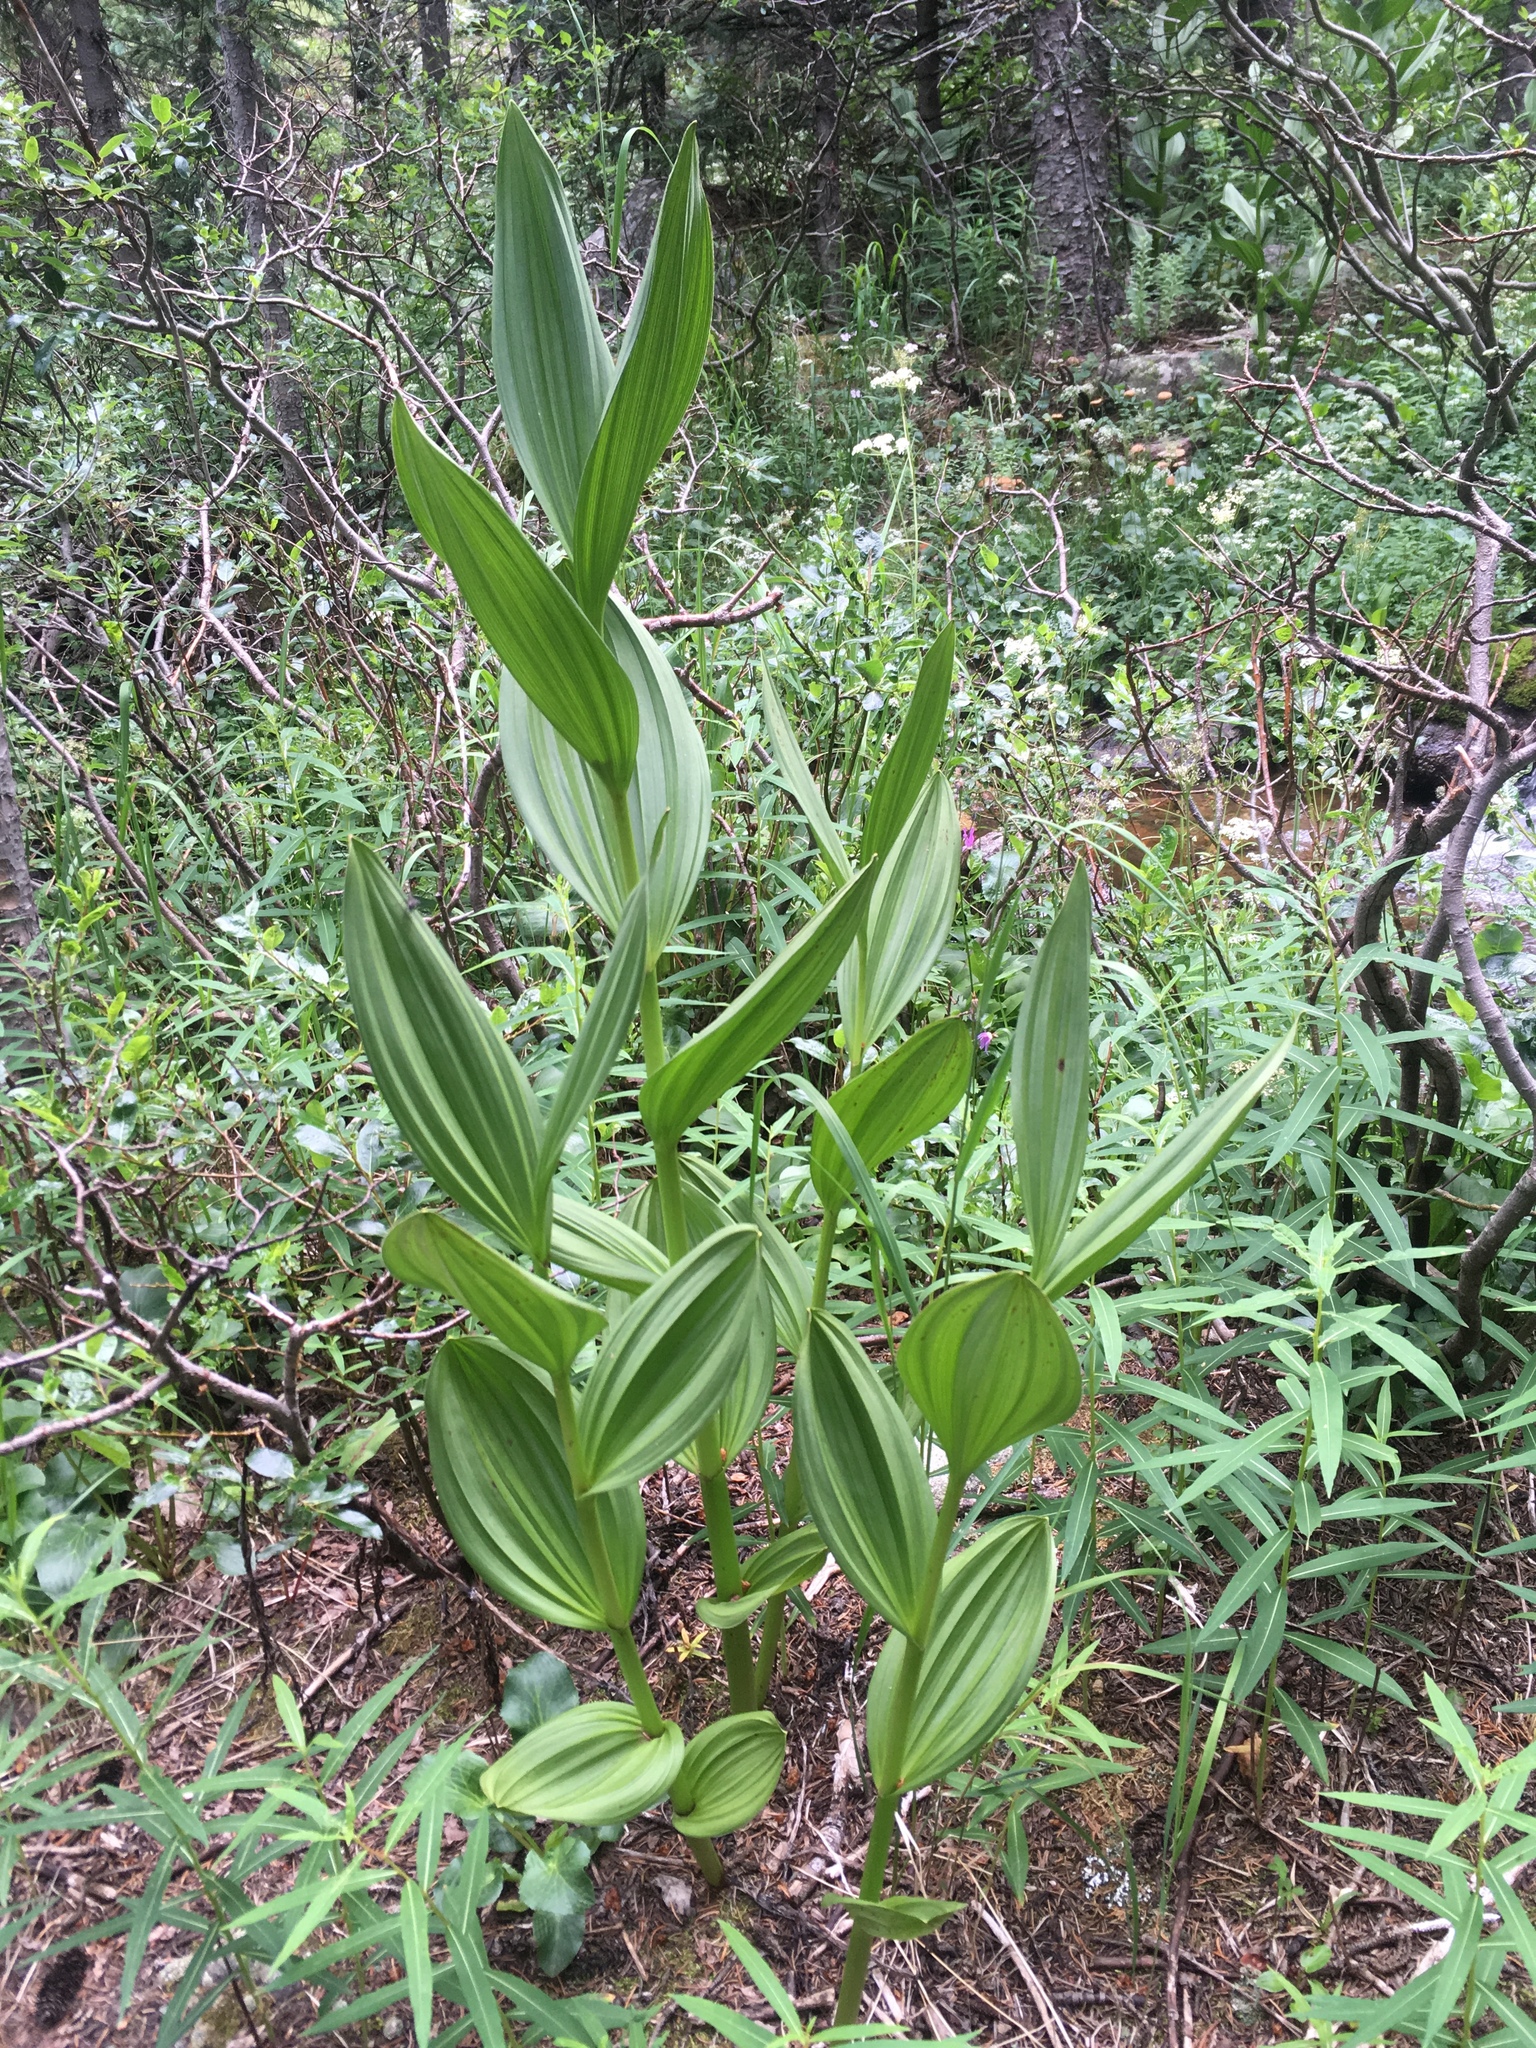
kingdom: Plantae
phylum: Tracheophyta
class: Liliopsida
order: Liliales
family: Melanthiaceae
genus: Veratrum
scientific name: Veratrum californicum
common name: California veratrum
